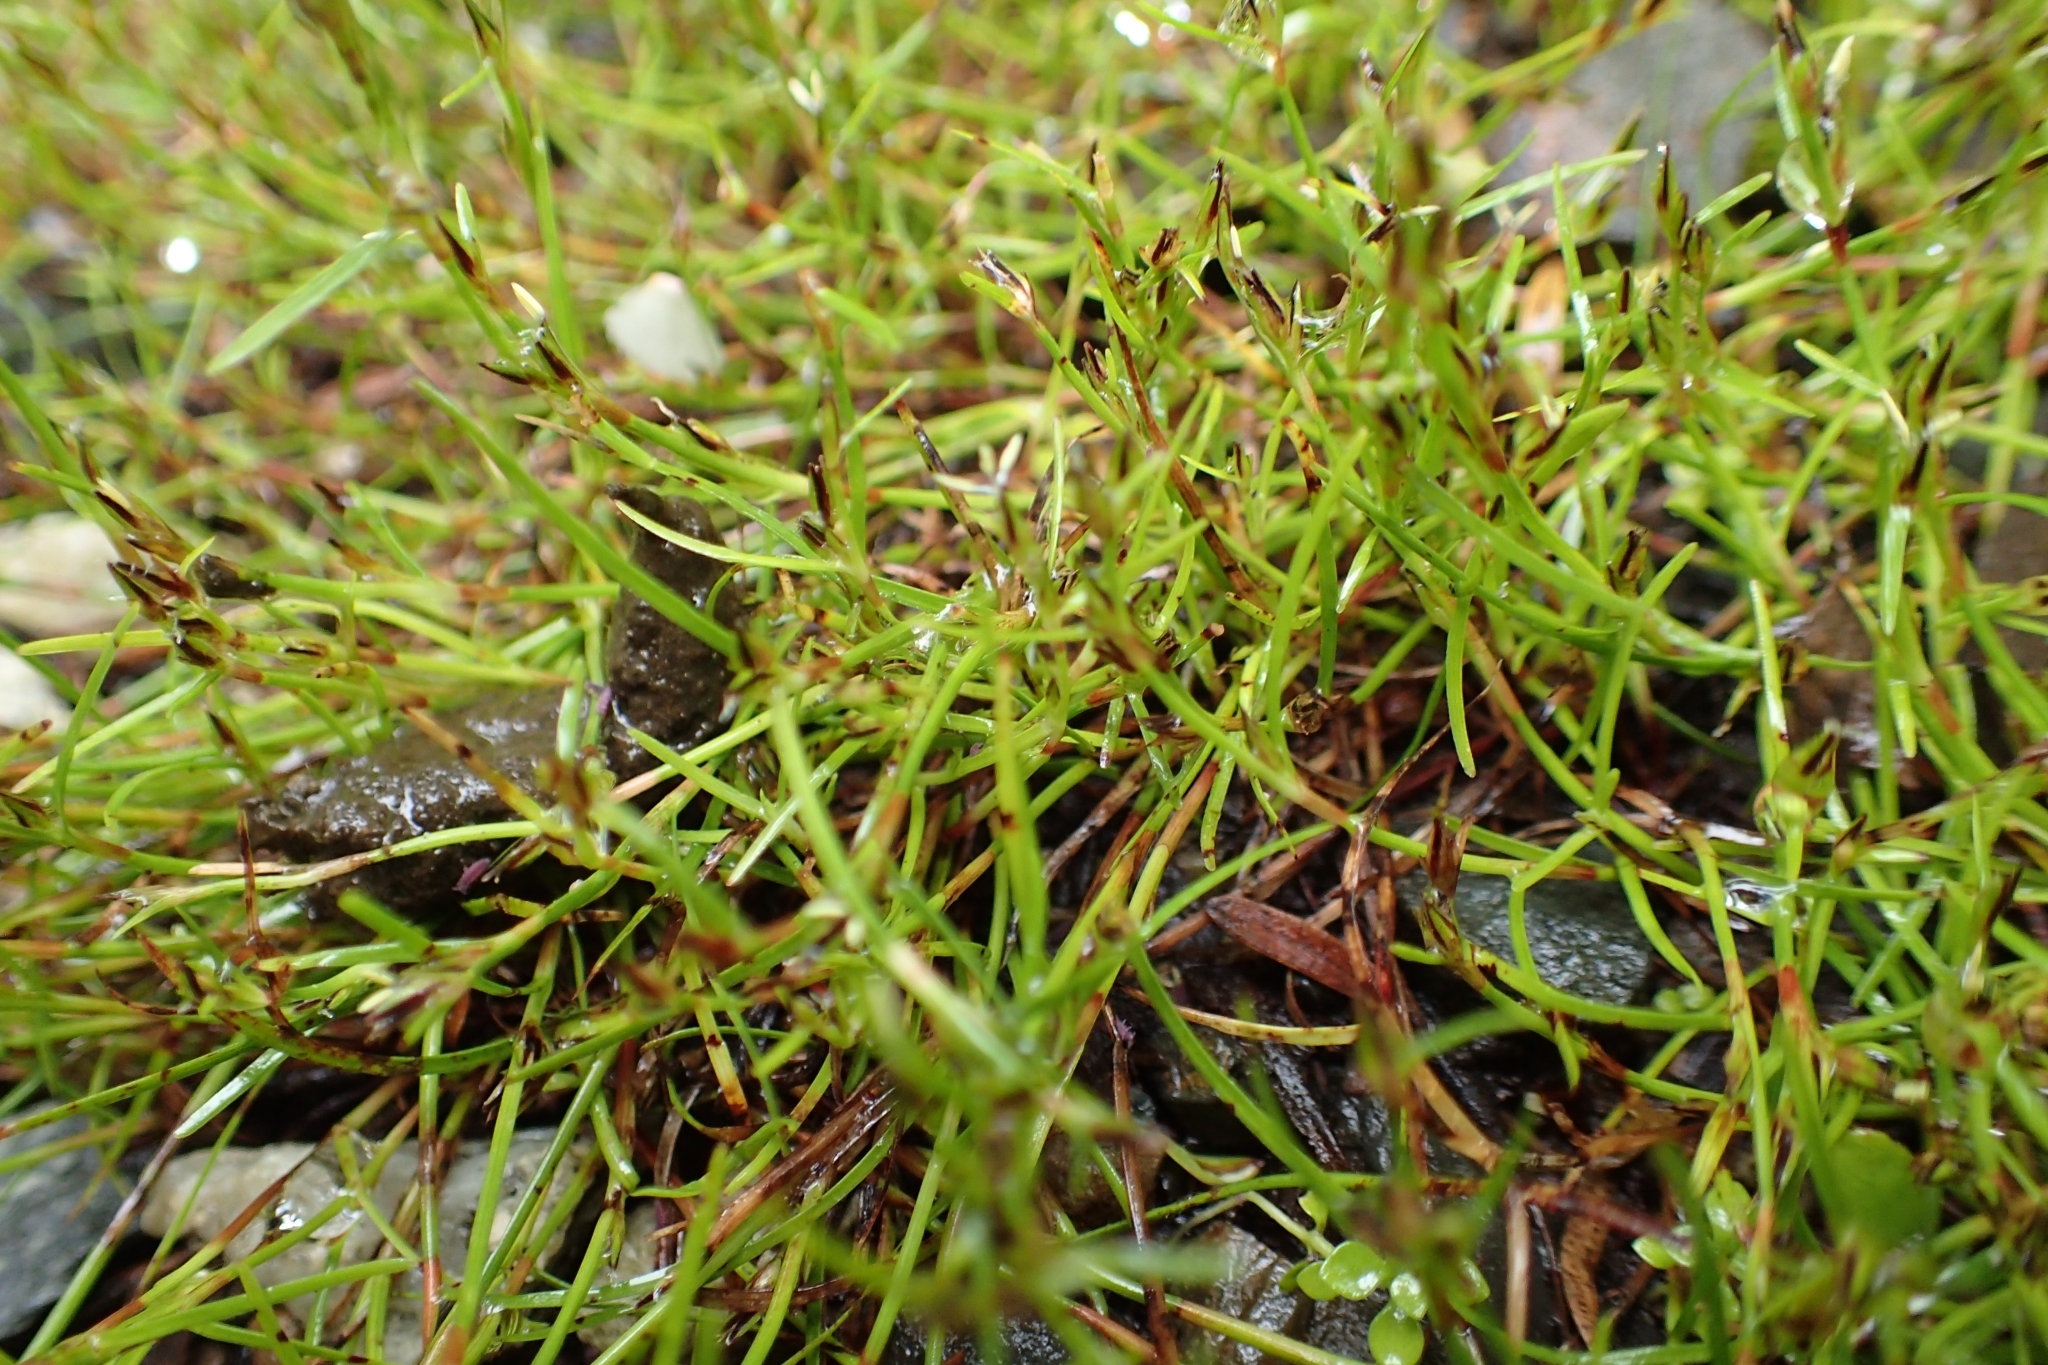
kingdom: Plantae
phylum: Tracheophyta
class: Liliopsida
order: Poales
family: Cyperaceae
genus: Schoenus
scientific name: Schoenus maschalinus
